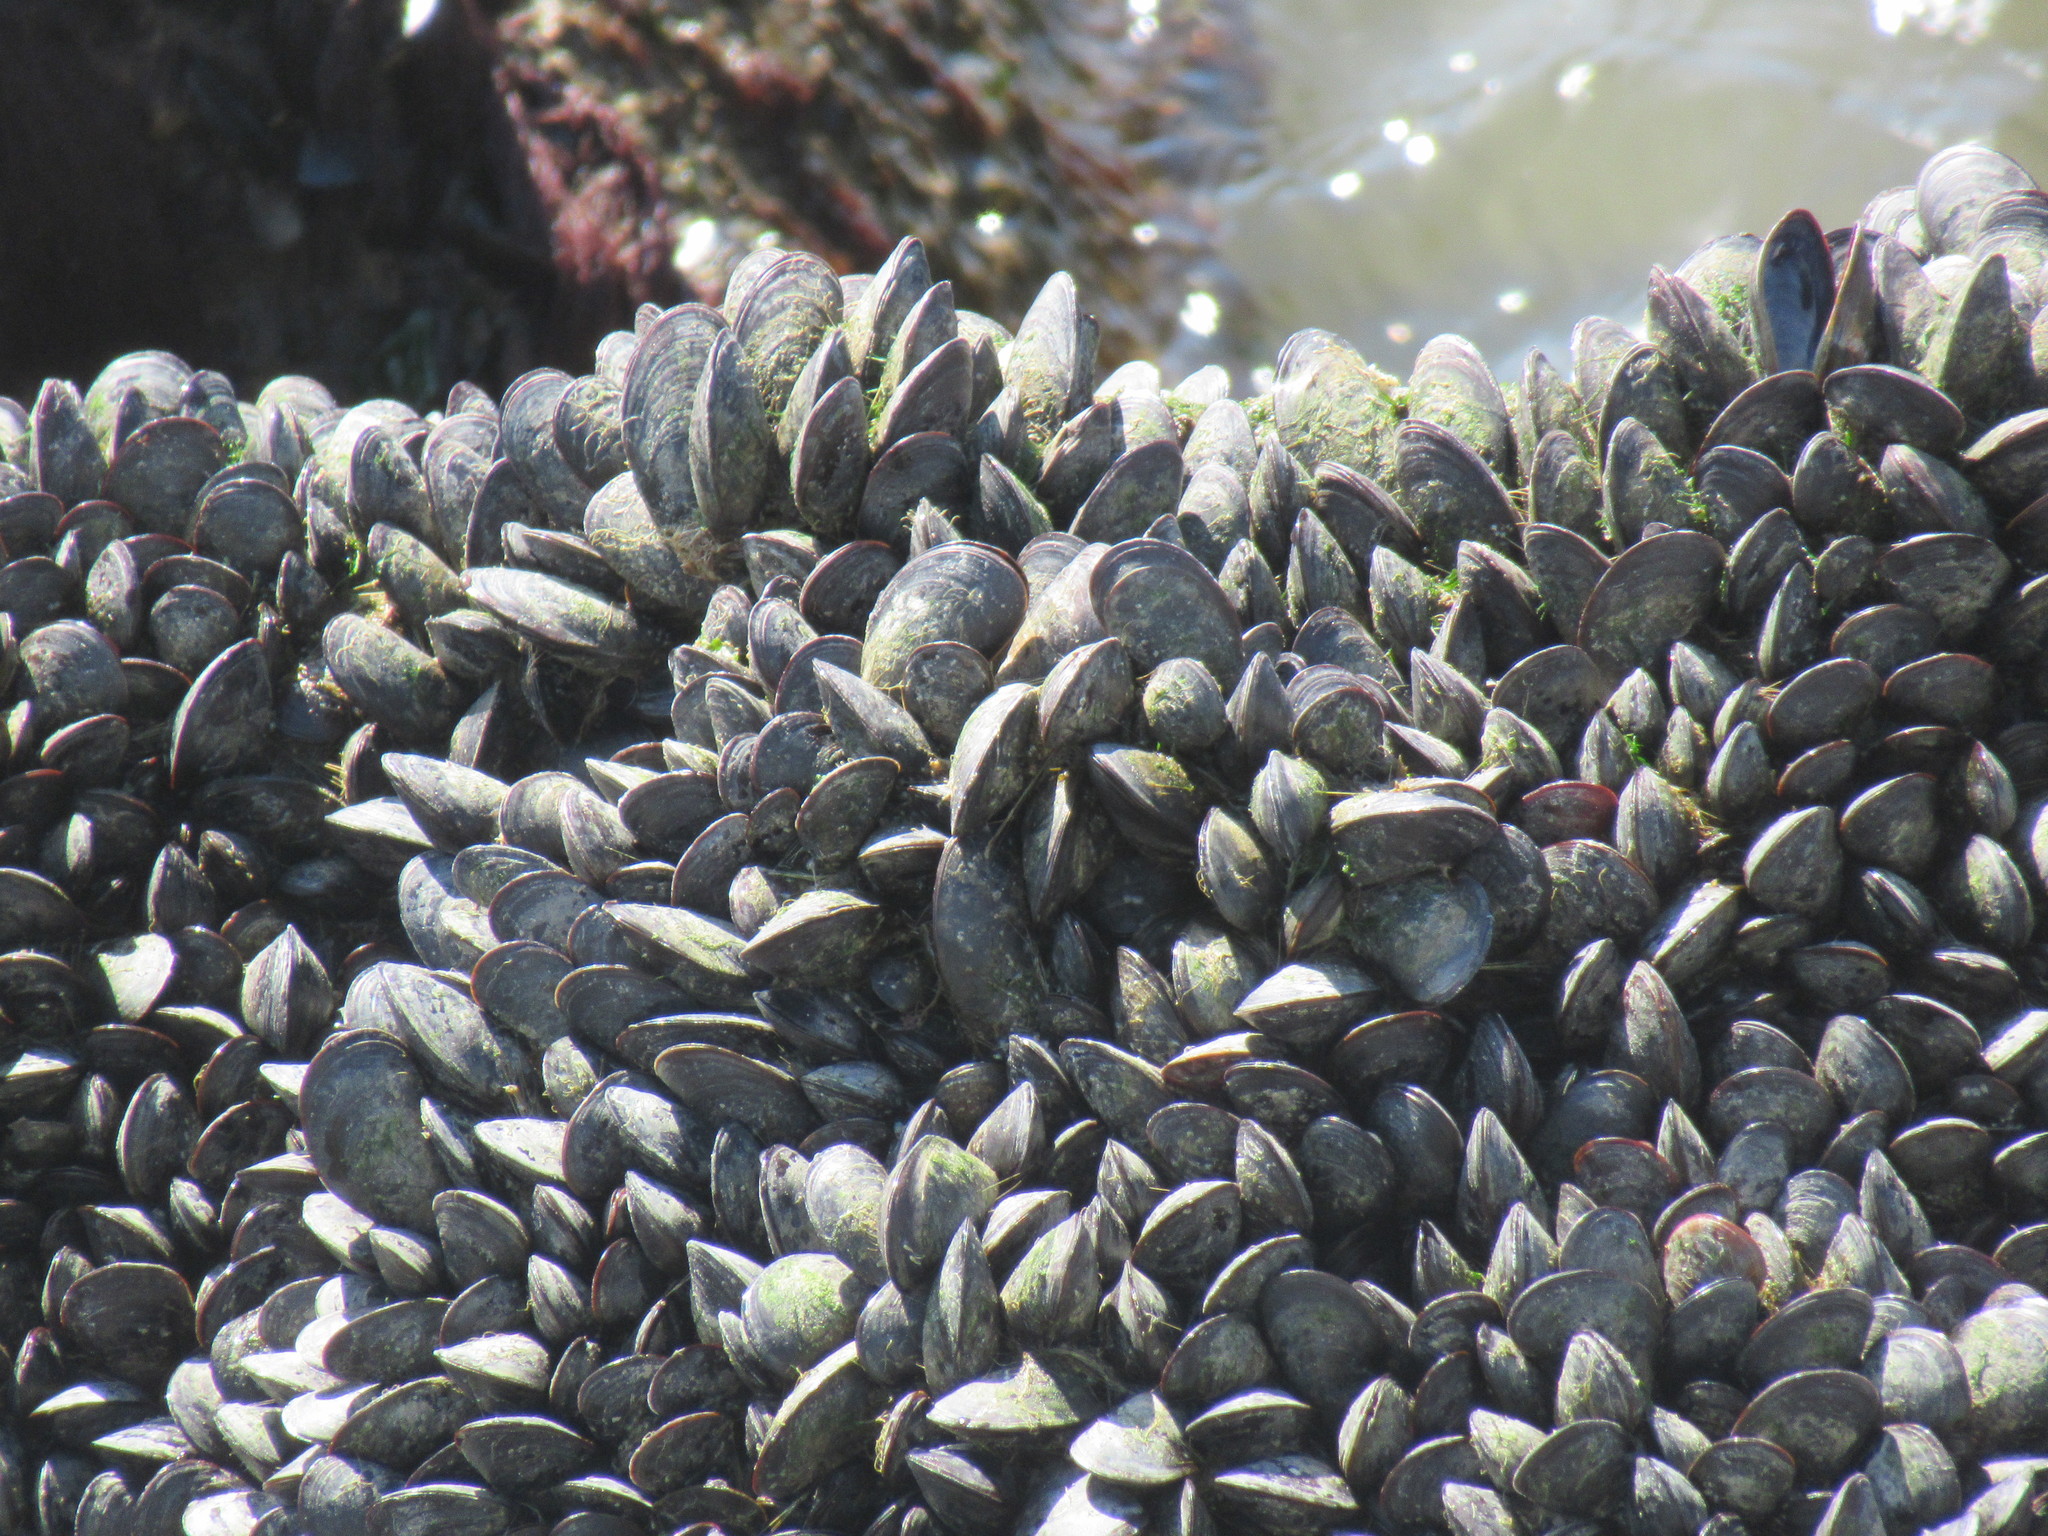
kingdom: Animalia
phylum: Mollusca
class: Bivalvia
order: Mytilida
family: Mytilidae
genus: Mytilus
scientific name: Mytilus
